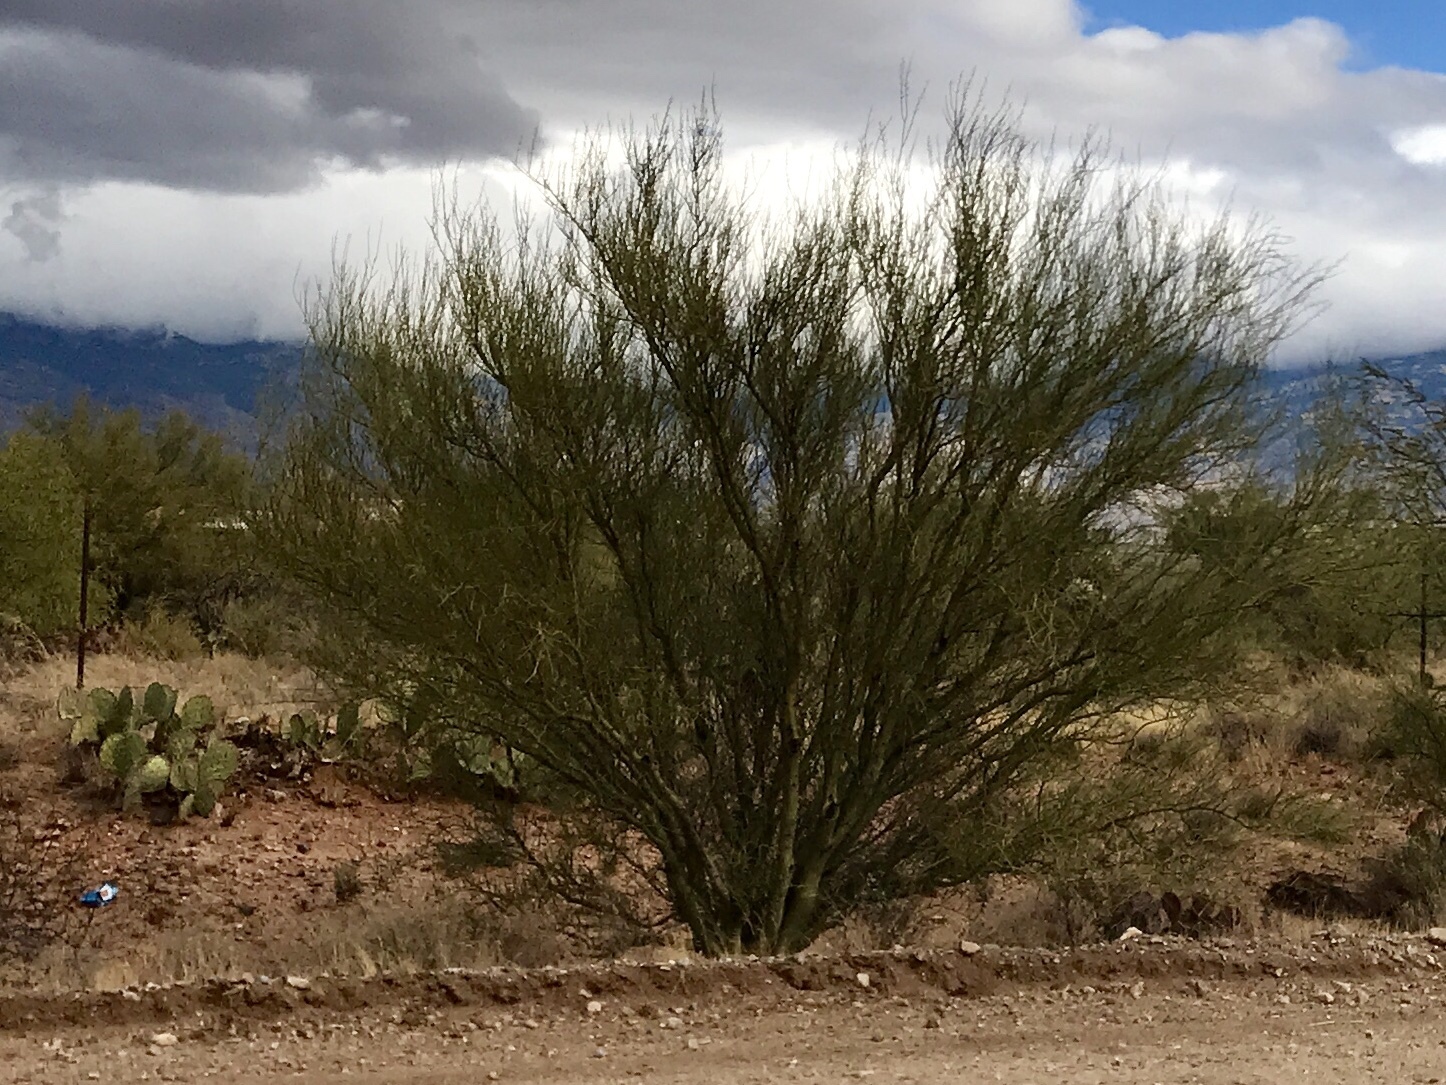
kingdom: Plantae
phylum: Tracheophyta
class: Magnoliopsida
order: Fabales
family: Fabaceae
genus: Parkinsonia
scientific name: Parkinsonia microphylla
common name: Yellow paloverde
